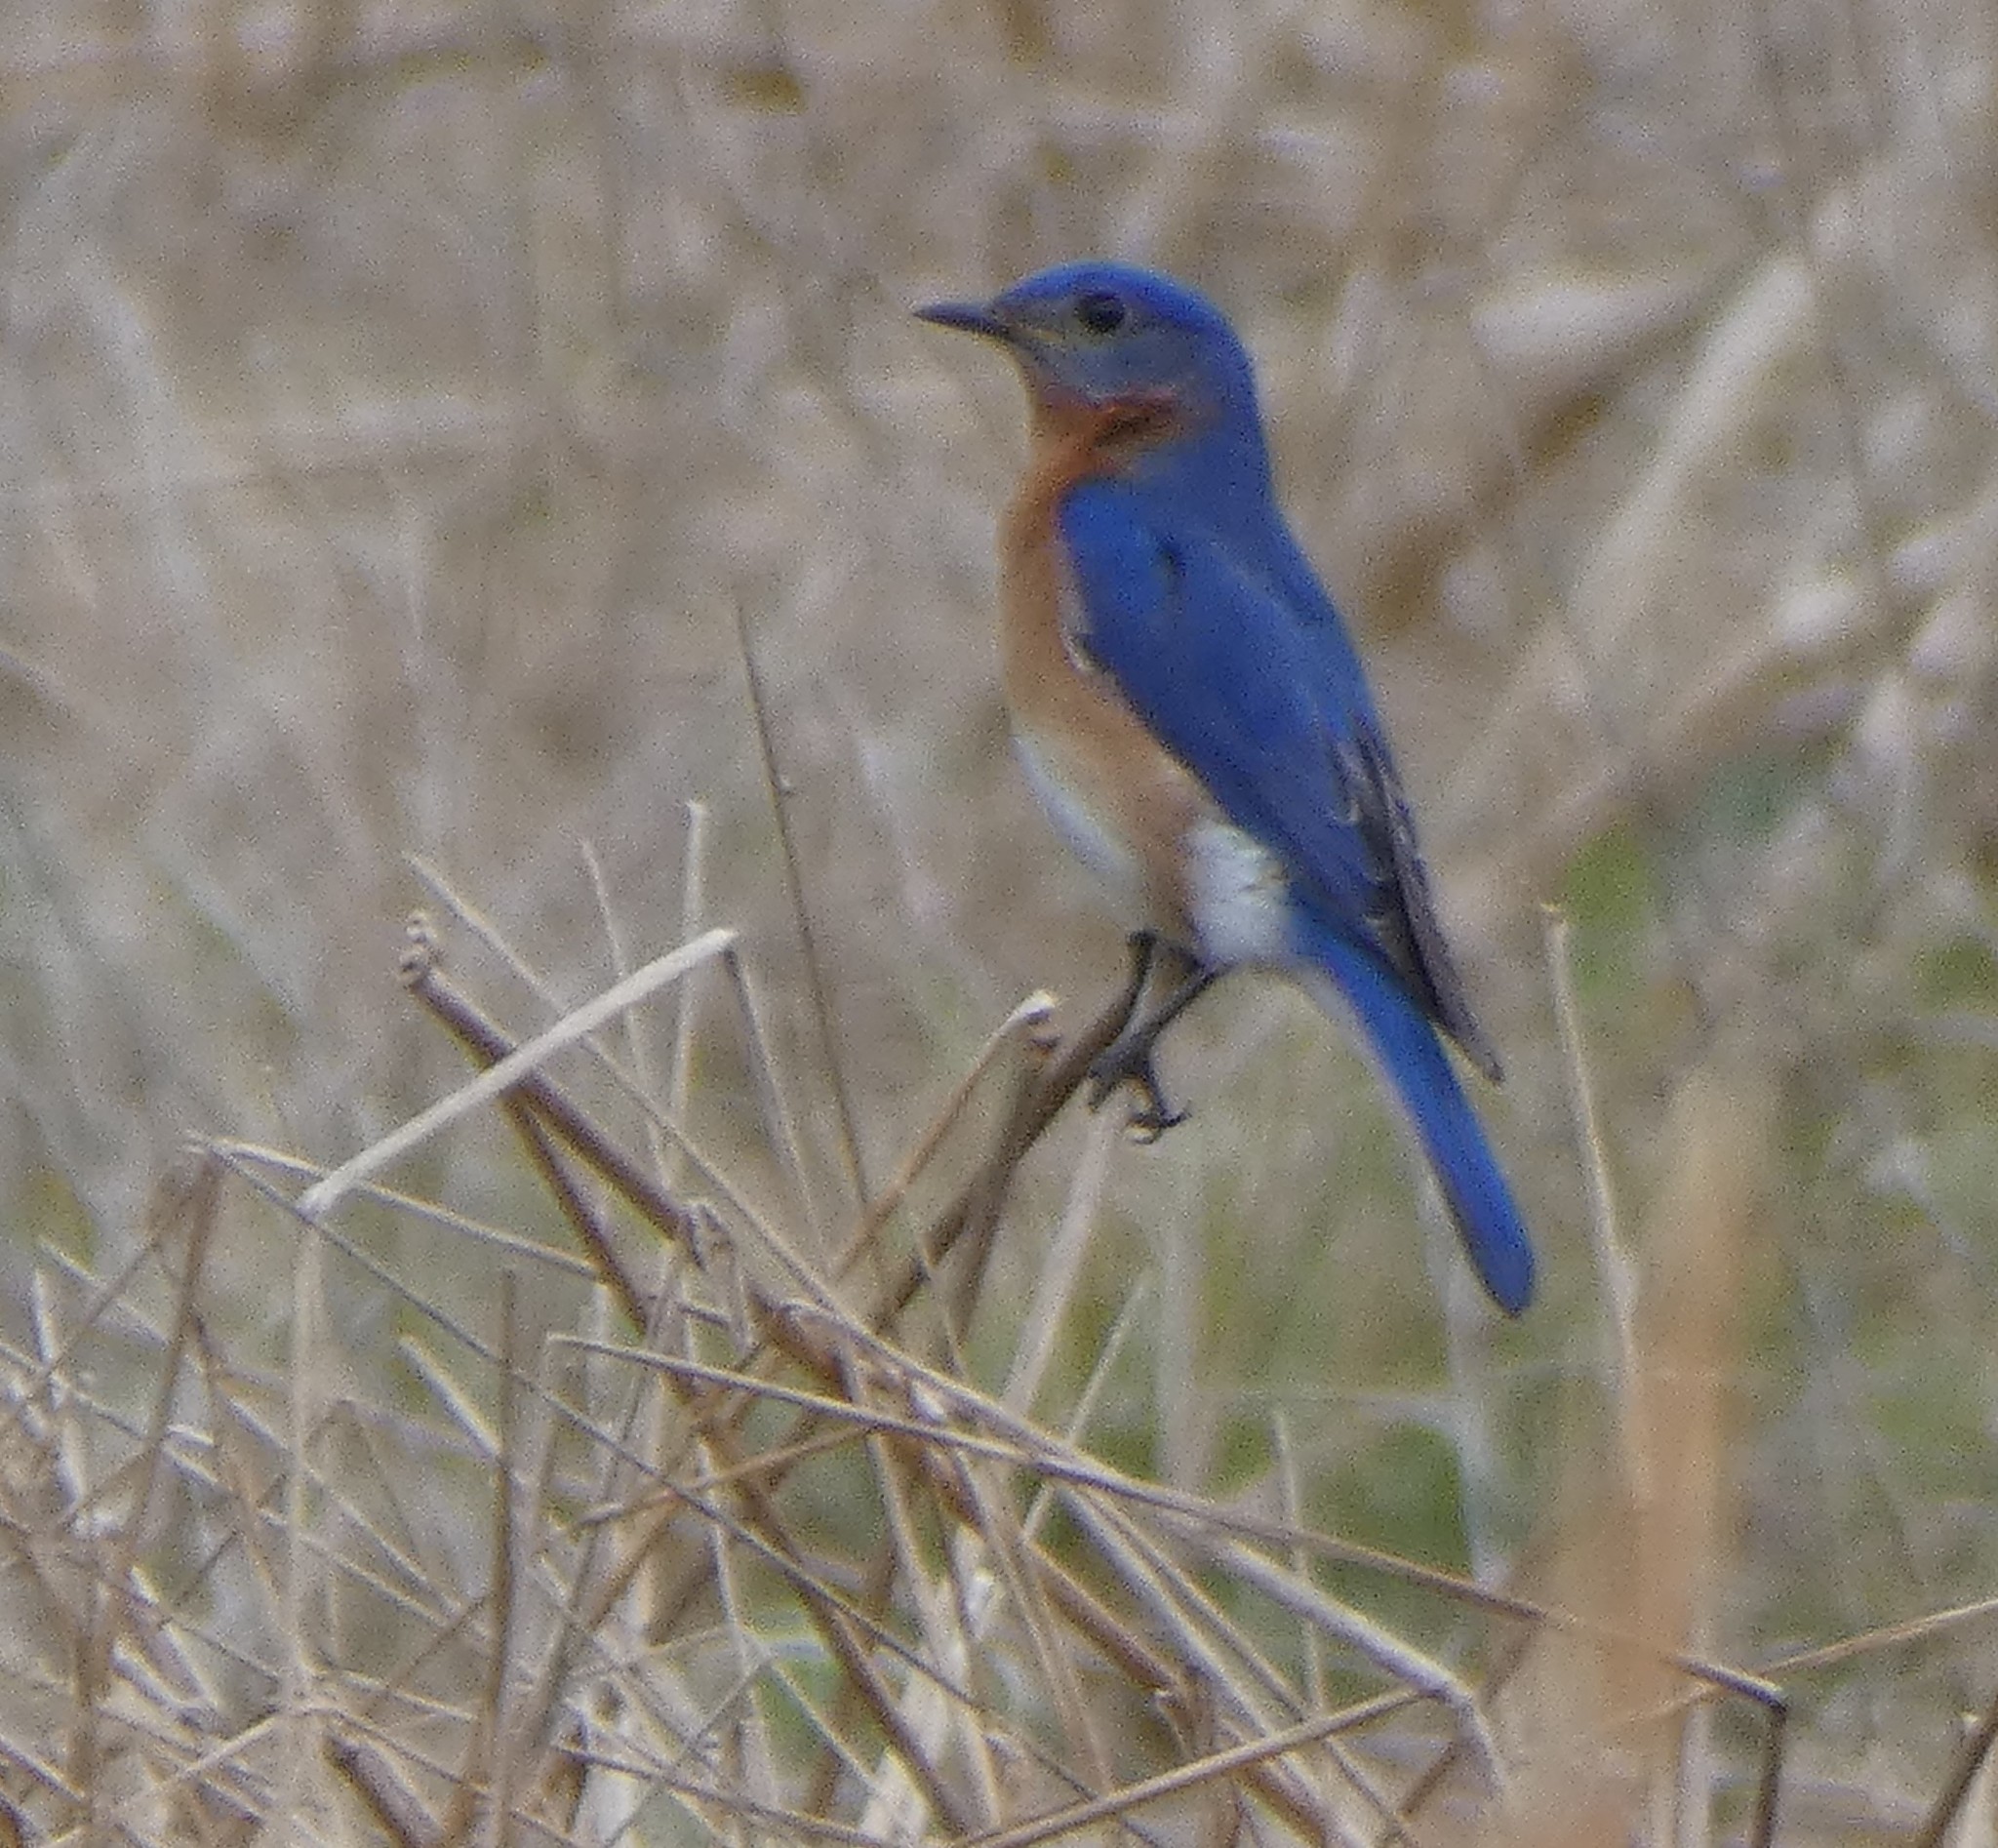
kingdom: Animalia
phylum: Chordata
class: Aves
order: Passeriformes
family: Turdidae
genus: Sialia
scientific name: Sialia sialis
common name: Eastern bluebird
